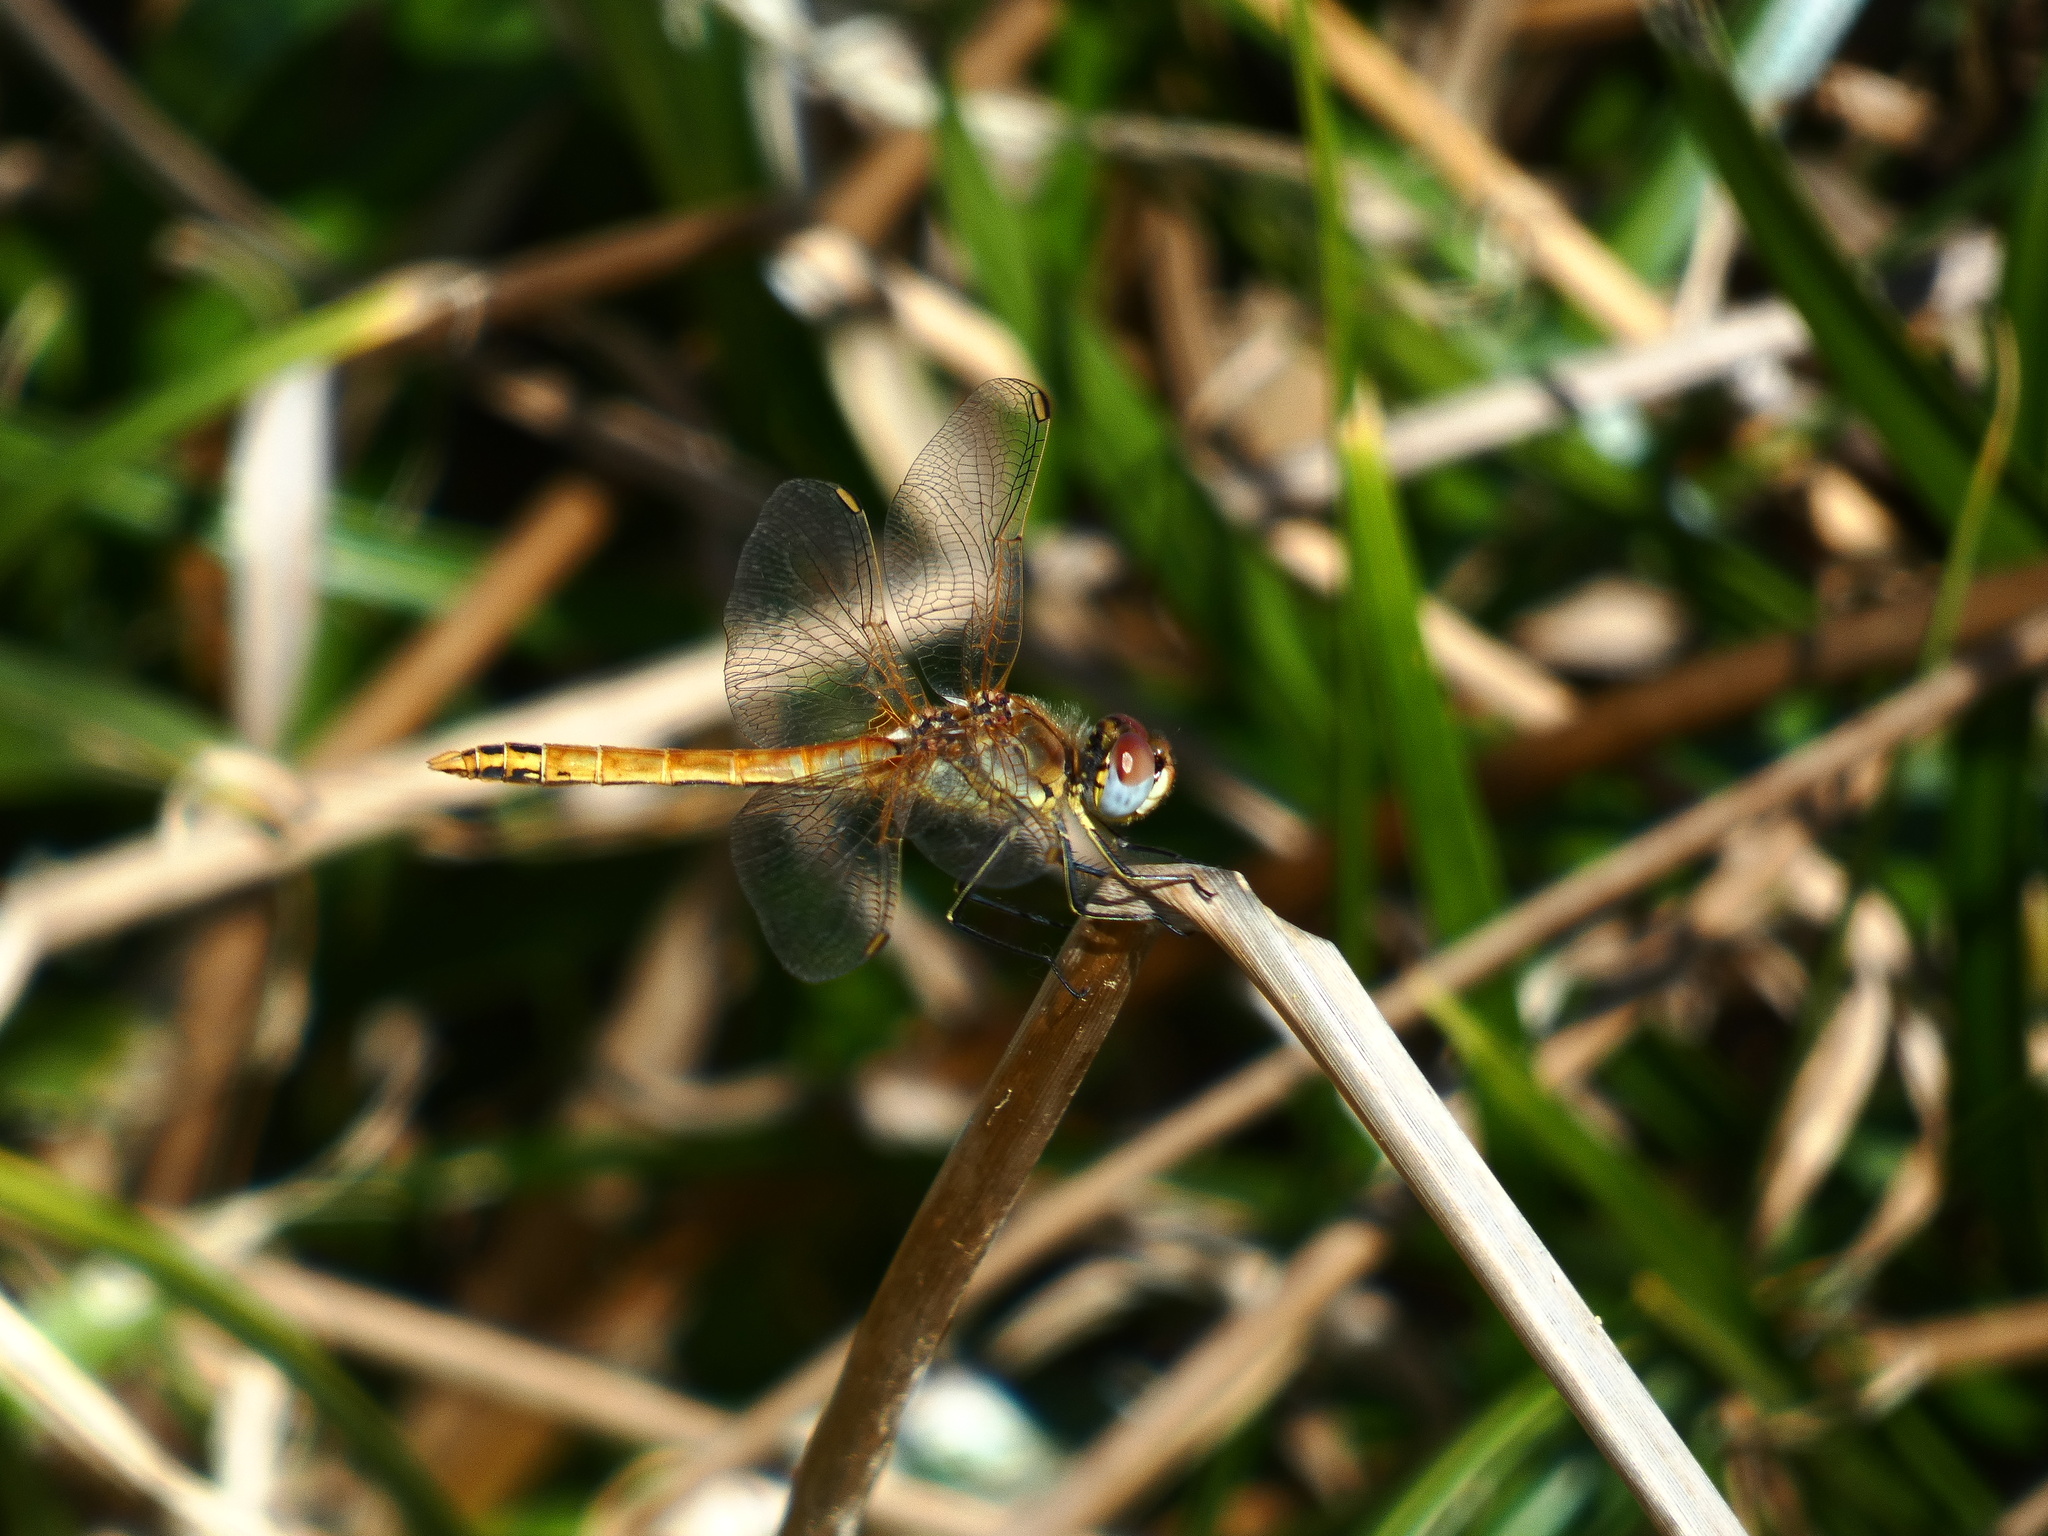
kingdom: Animalia
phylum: Arthropoda
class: Insecta
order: Odonata
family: Libellulidae
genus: Sympetrum
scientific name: Sympetrum fonscolombii
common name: Red-veined darter
